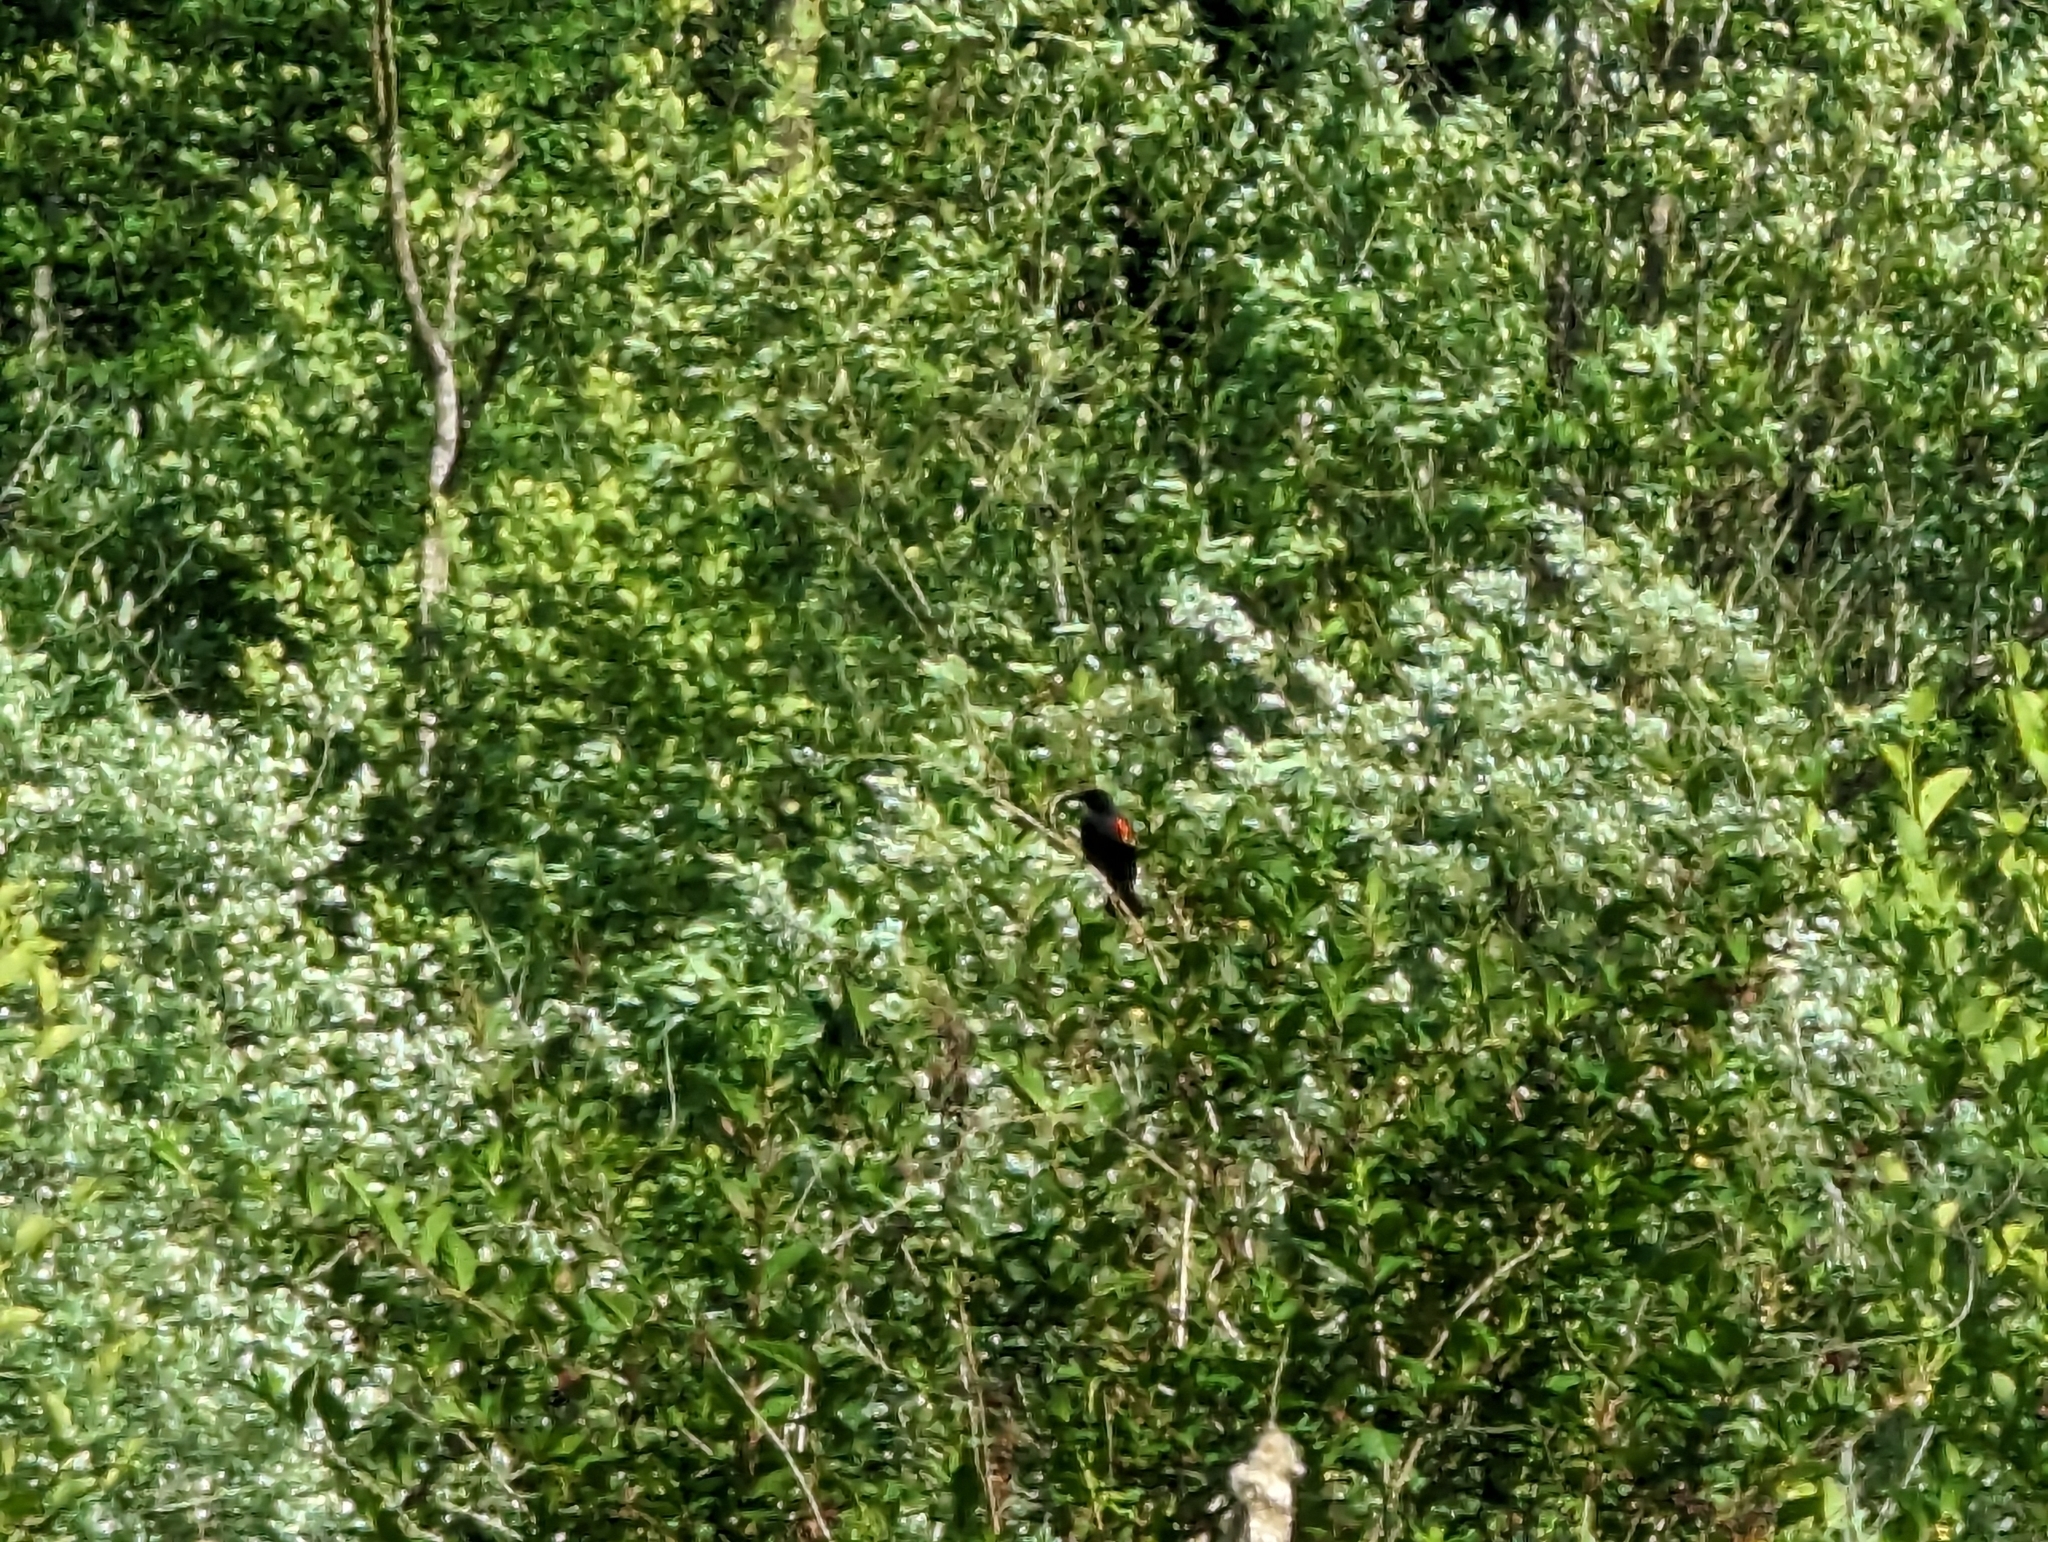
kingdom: Animalia
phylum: Chordata
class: Aves
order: Passeriformes
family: Icteridae
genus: Agelaius
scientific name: Agelaius phoeniceus
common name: Red-winged blackbird
